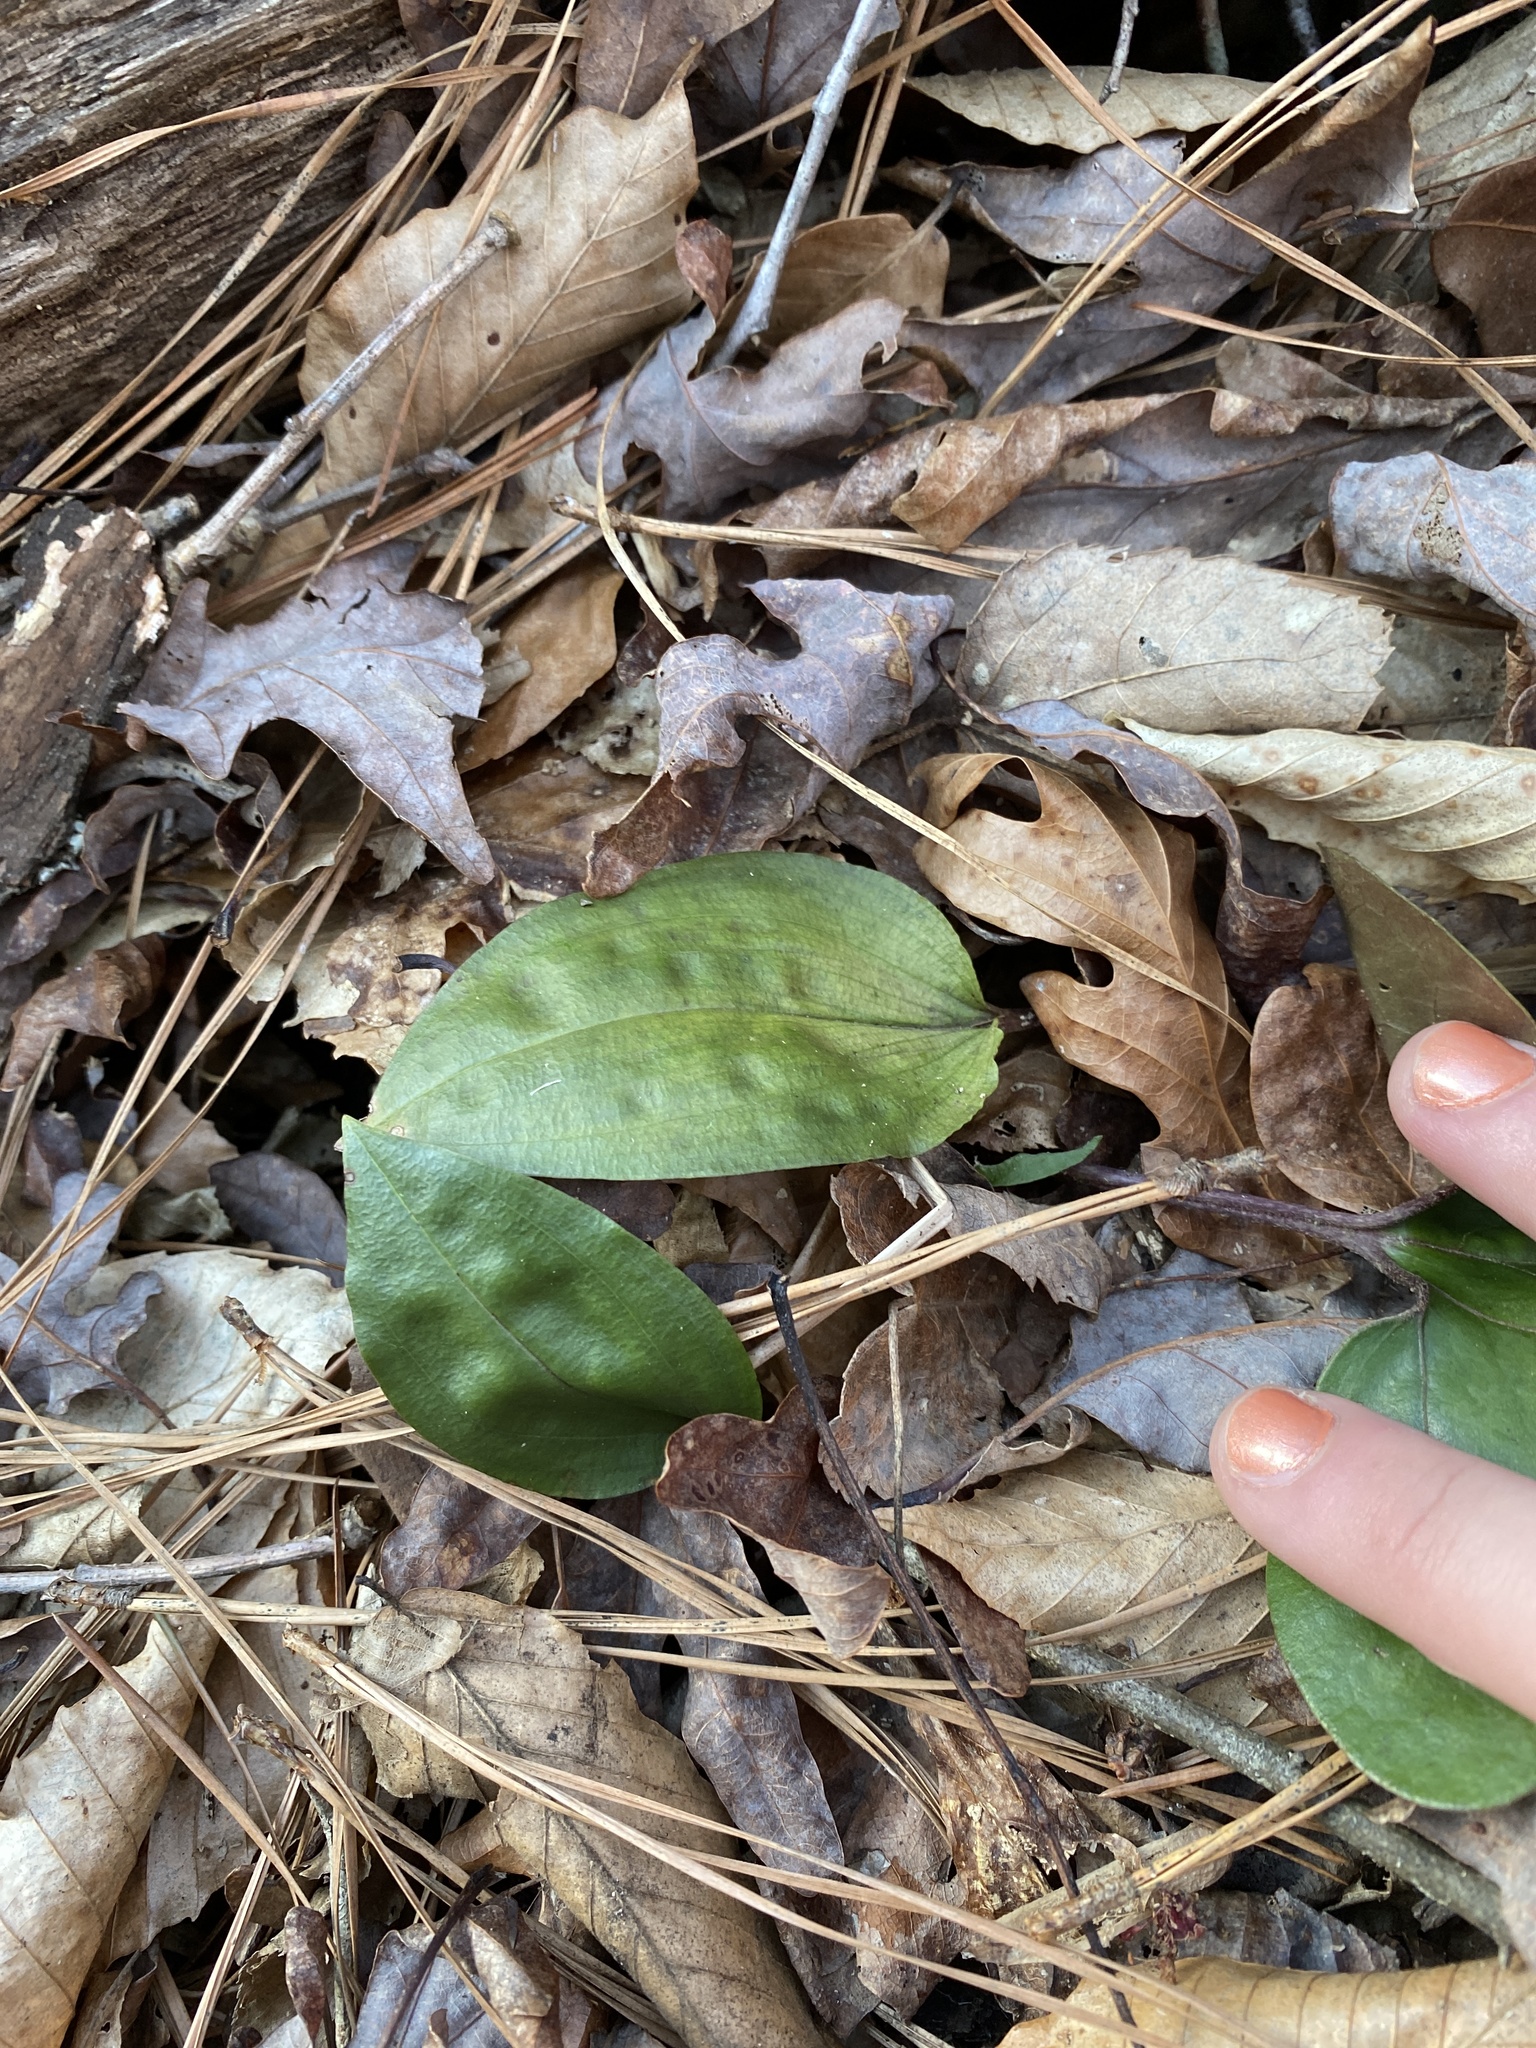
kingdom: Plantae
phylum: Tracheophyta
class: Liliopsida
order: Asparagales
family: Orchidaceae
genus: Tipularia
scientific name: Tipularia discolor
